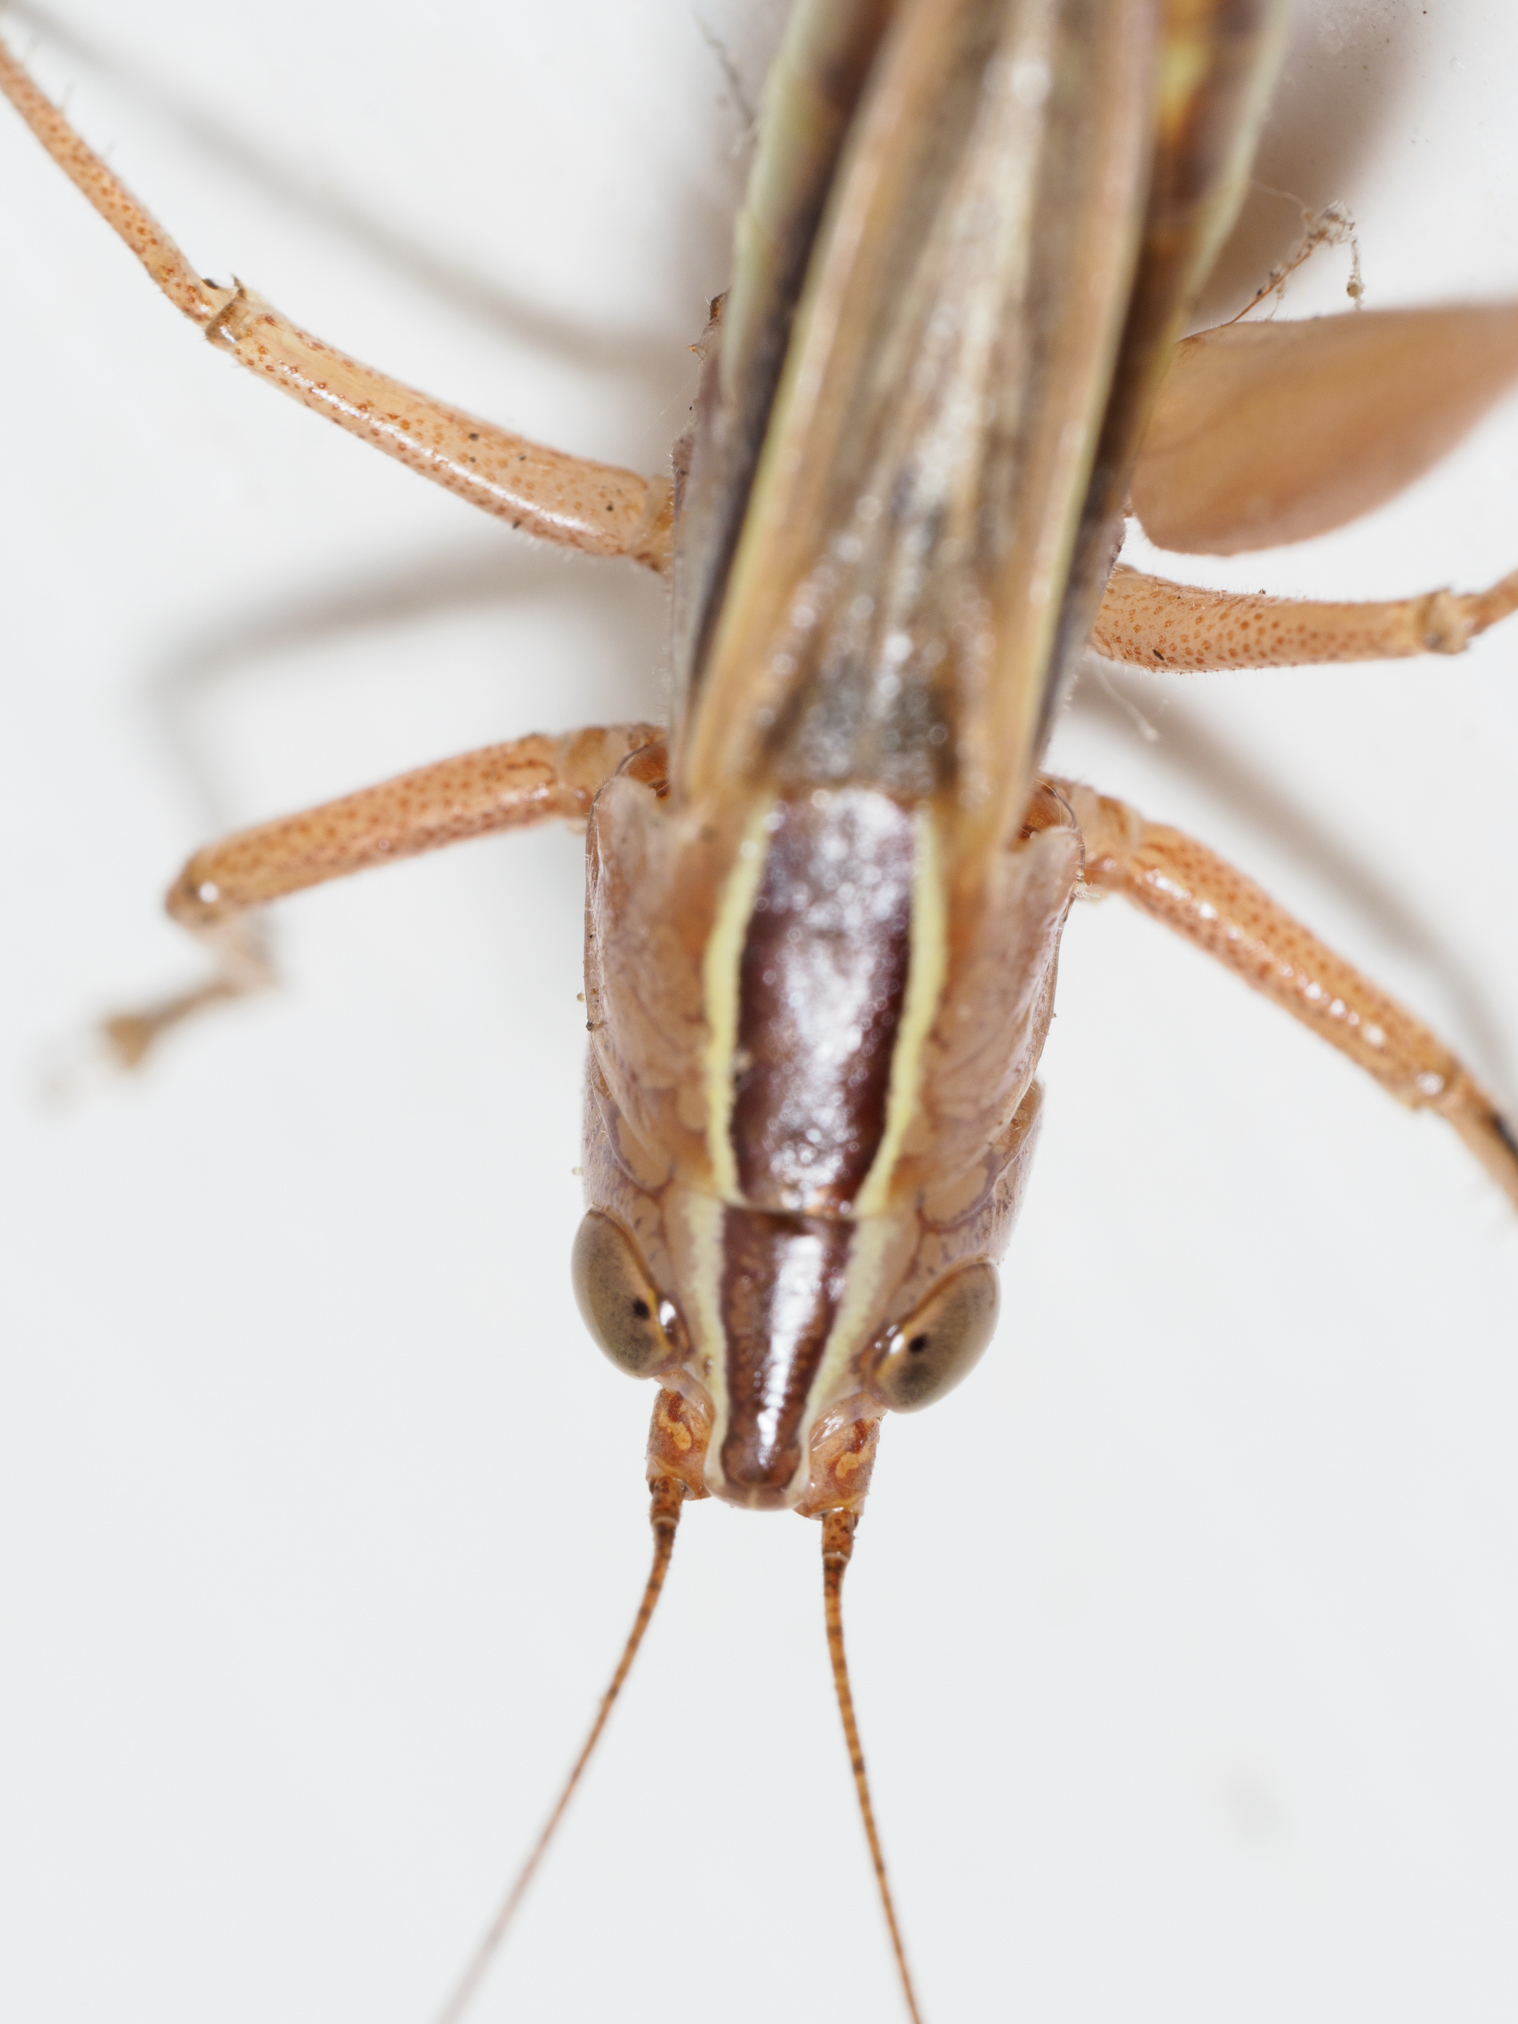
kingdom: Animalia
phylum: Arthropoda
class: Insecta
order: Orthoptera
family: Tettigoniidae
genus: Conocephalus
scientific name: Conocephalus albescens
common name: Whitish meadow katydid
